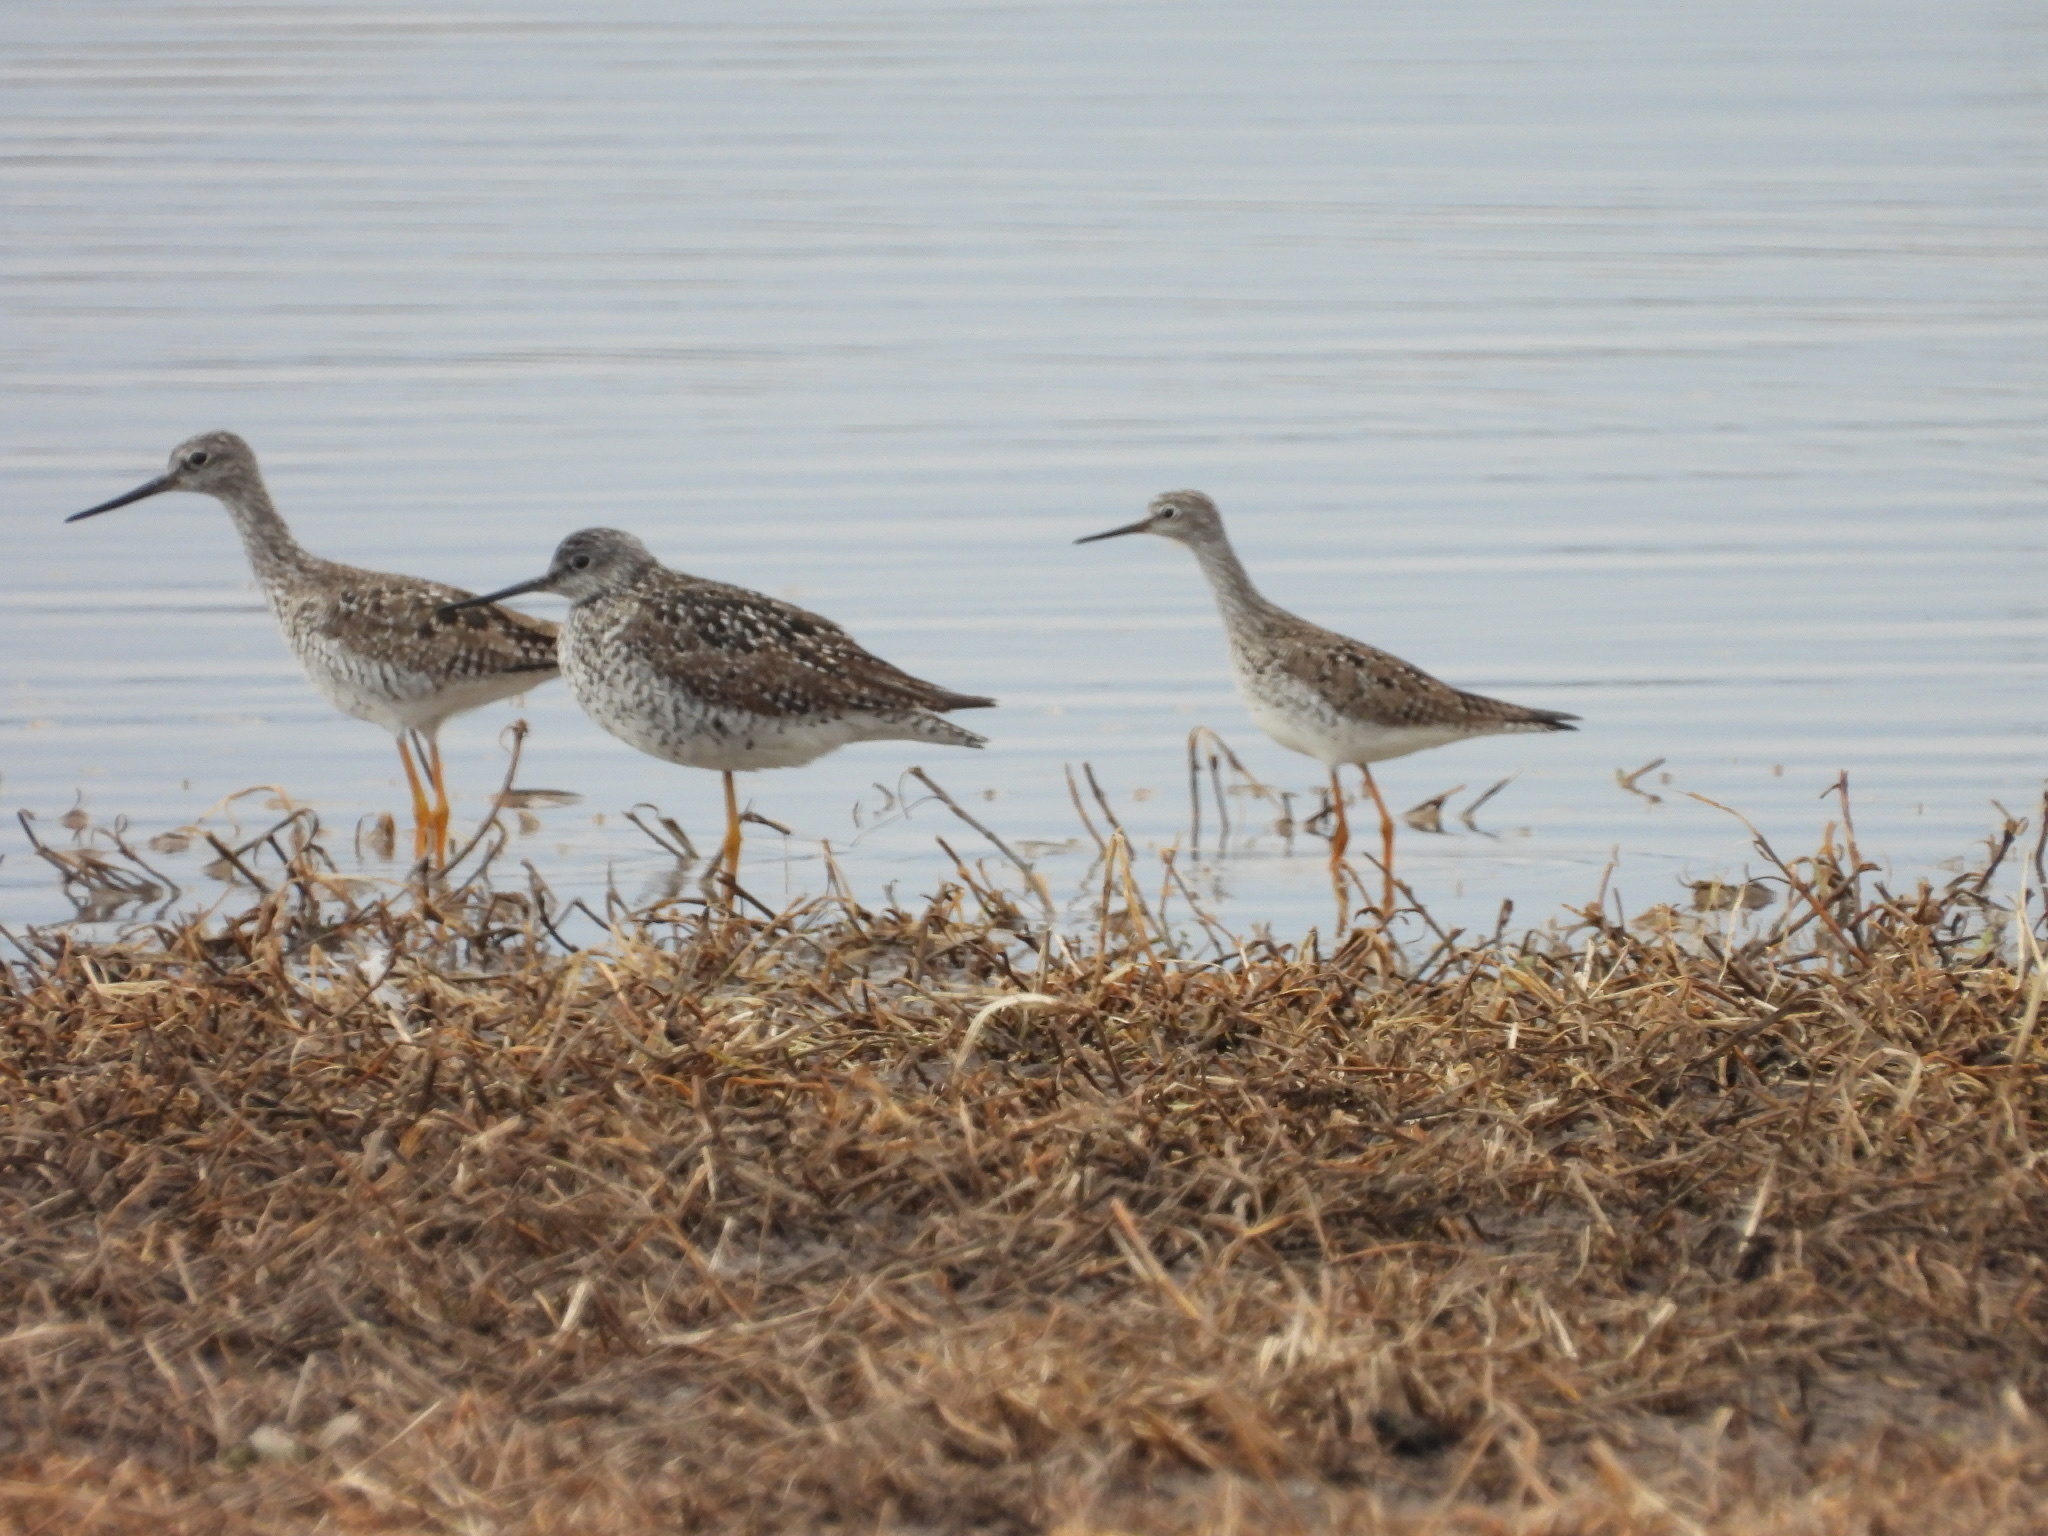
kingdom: Animalia
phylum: Chordata
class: Aves
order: Charadriiformes
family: Scolopacidae
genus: Tringa
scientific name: Tringa flavipes
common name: Lesser yellowlegs
